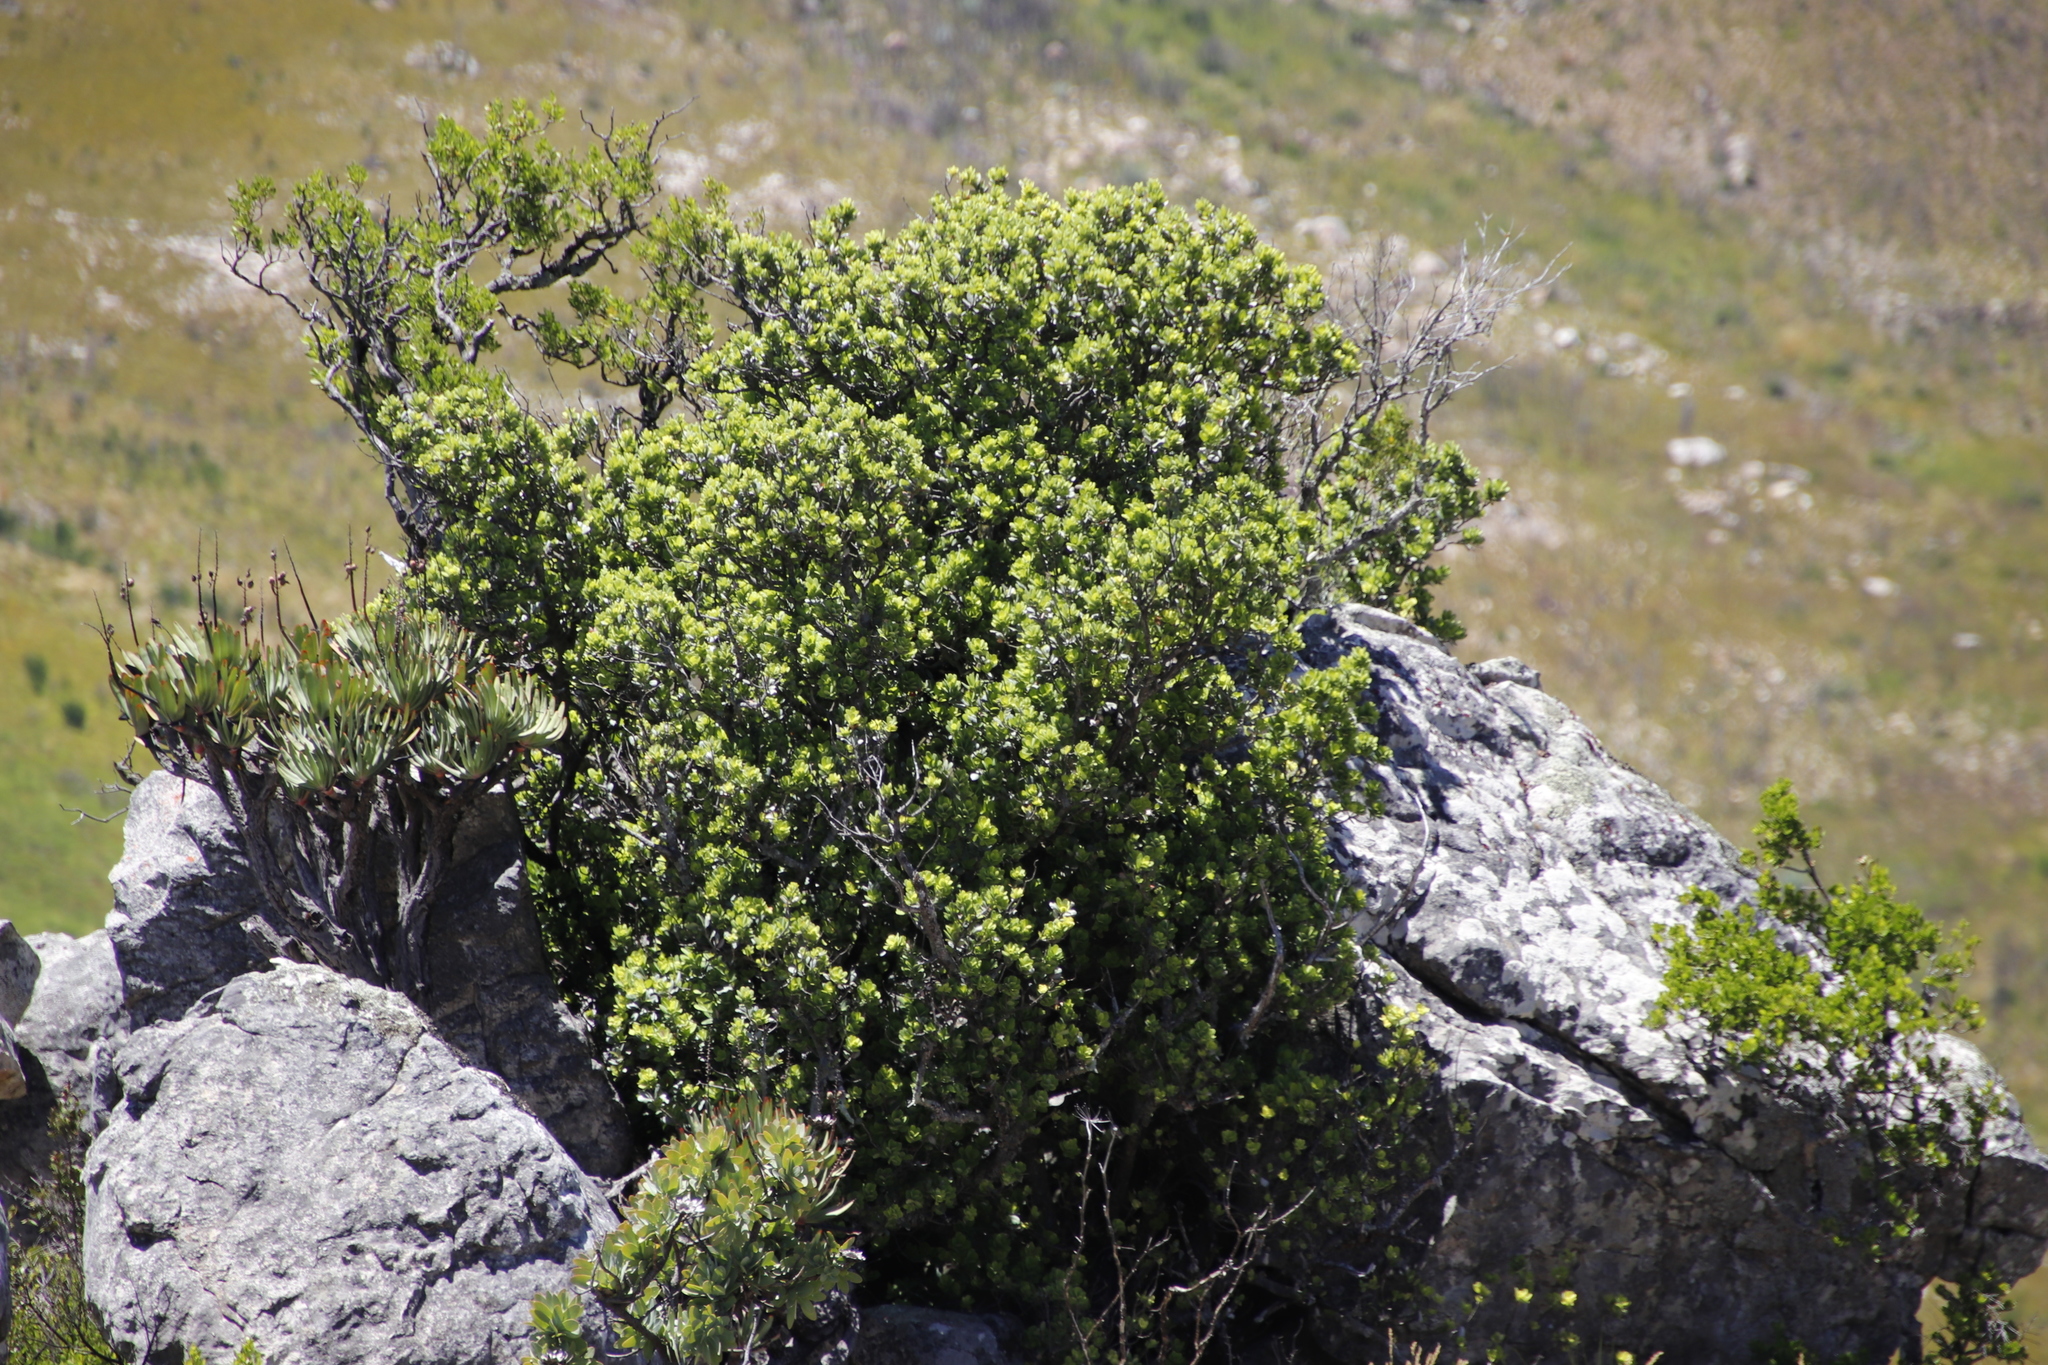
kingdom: Plantae
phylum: Tracheophyta
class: Magnoliopsida
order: Sapindales
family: Anacardiaceae
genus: Heeria
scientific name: Heeria argentea
